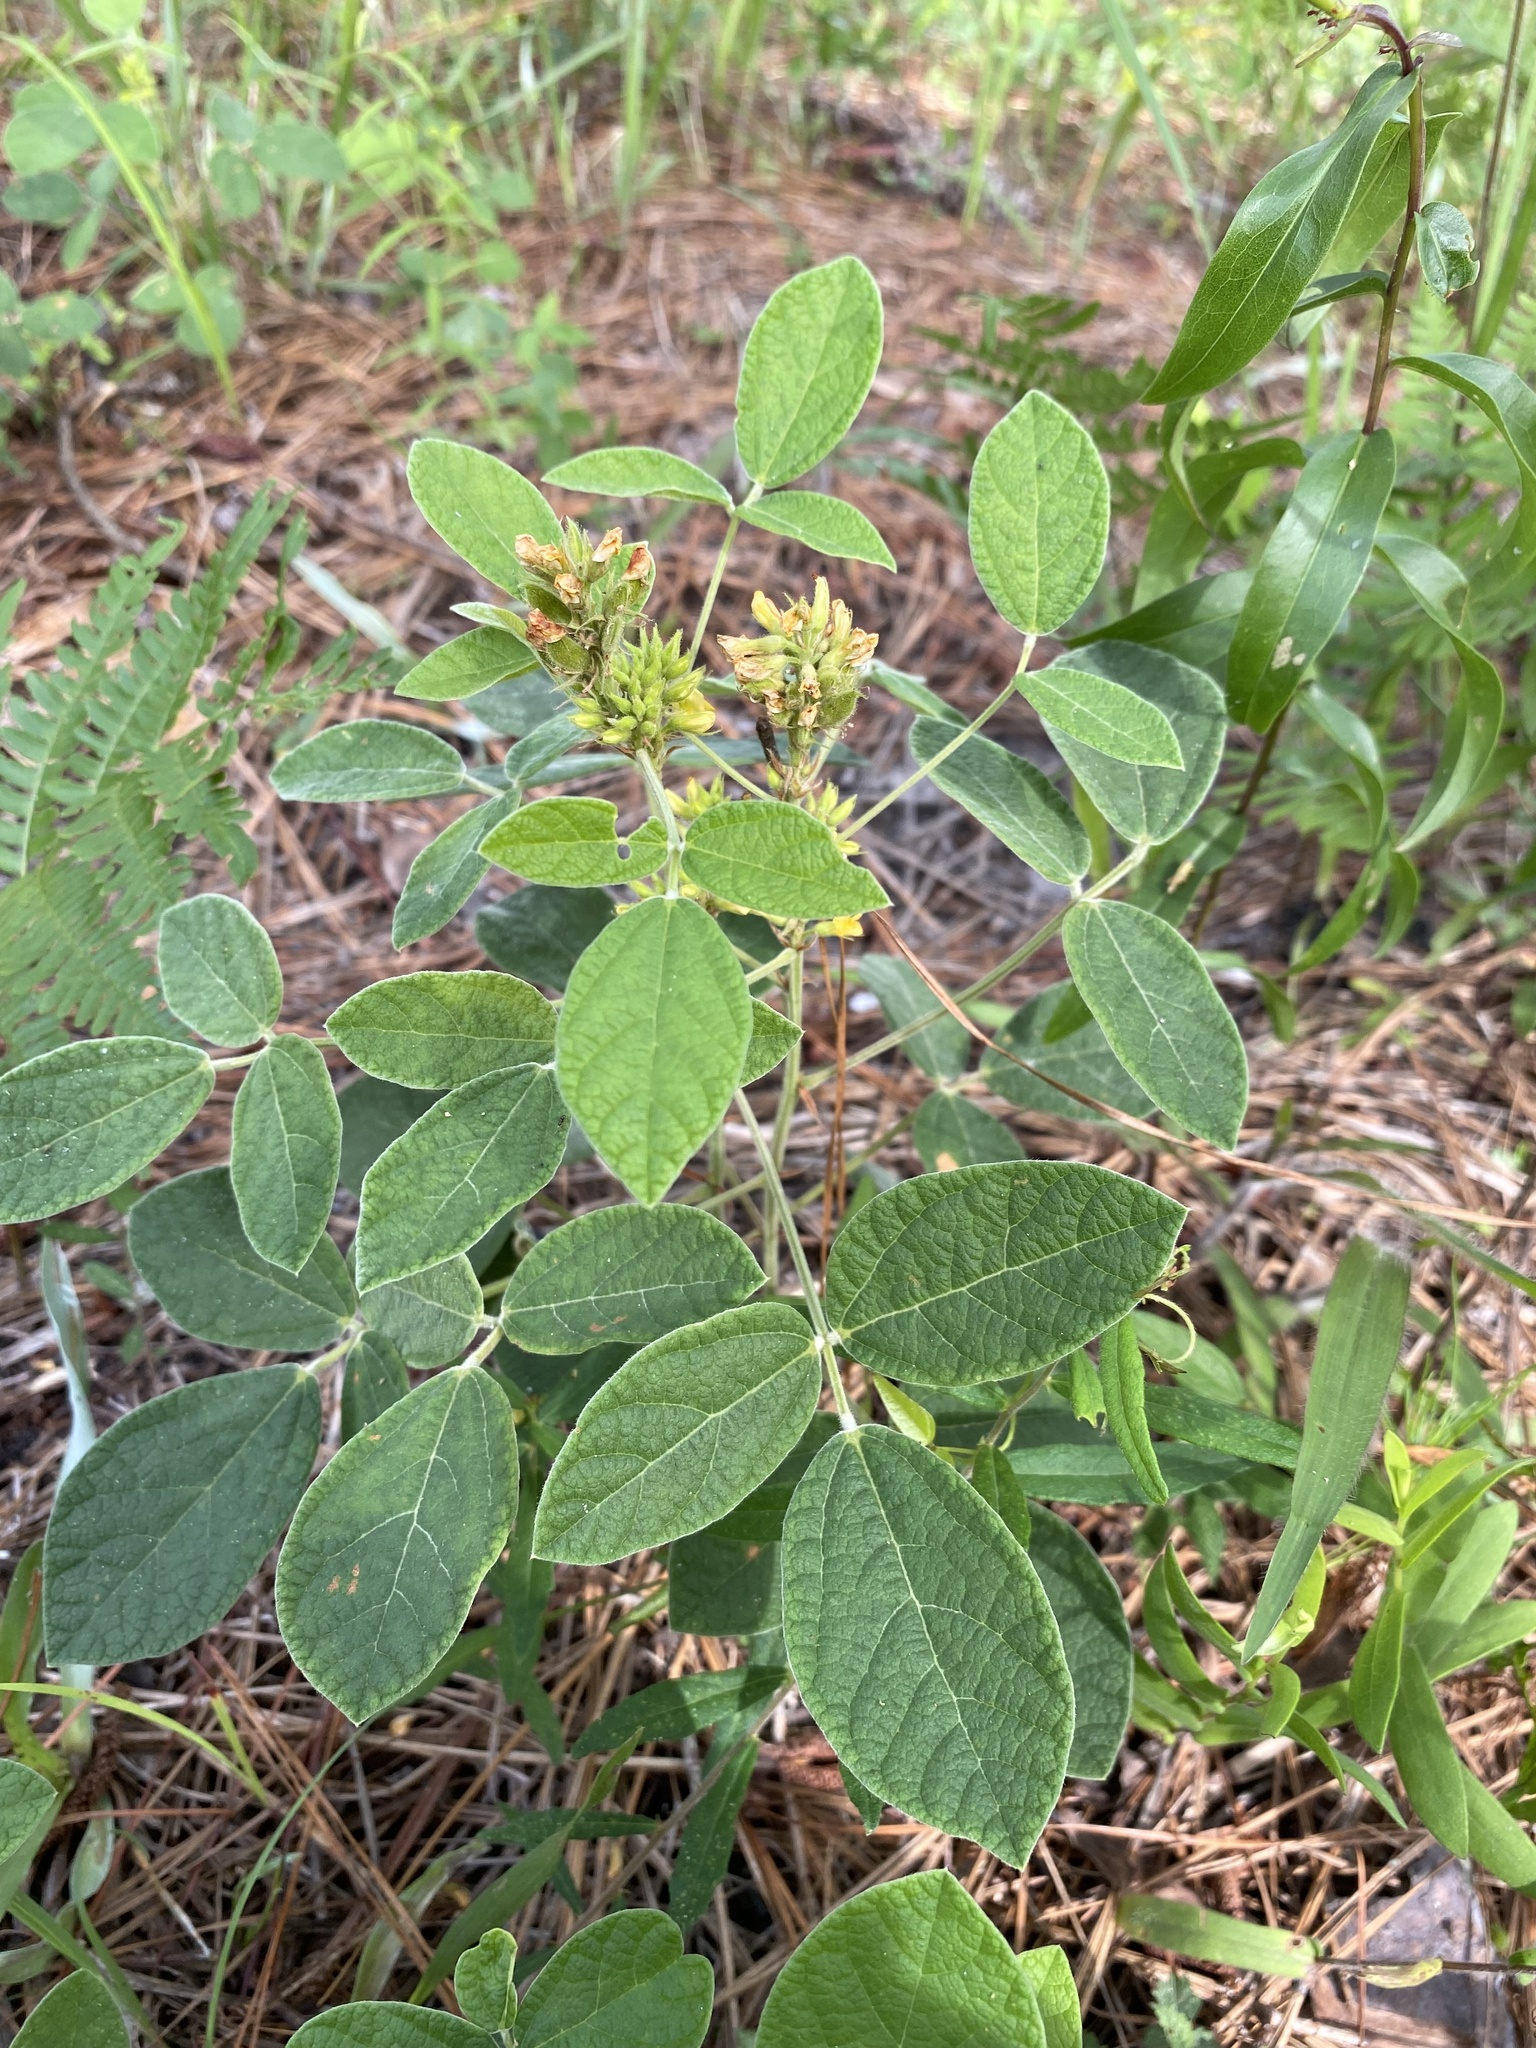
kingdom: Plantae
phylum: Tracheophyta
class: Magnoliopsida
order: Fabales
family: Fabaceae
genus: Rhynchosia
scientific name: Rhynchosia tomentosa
